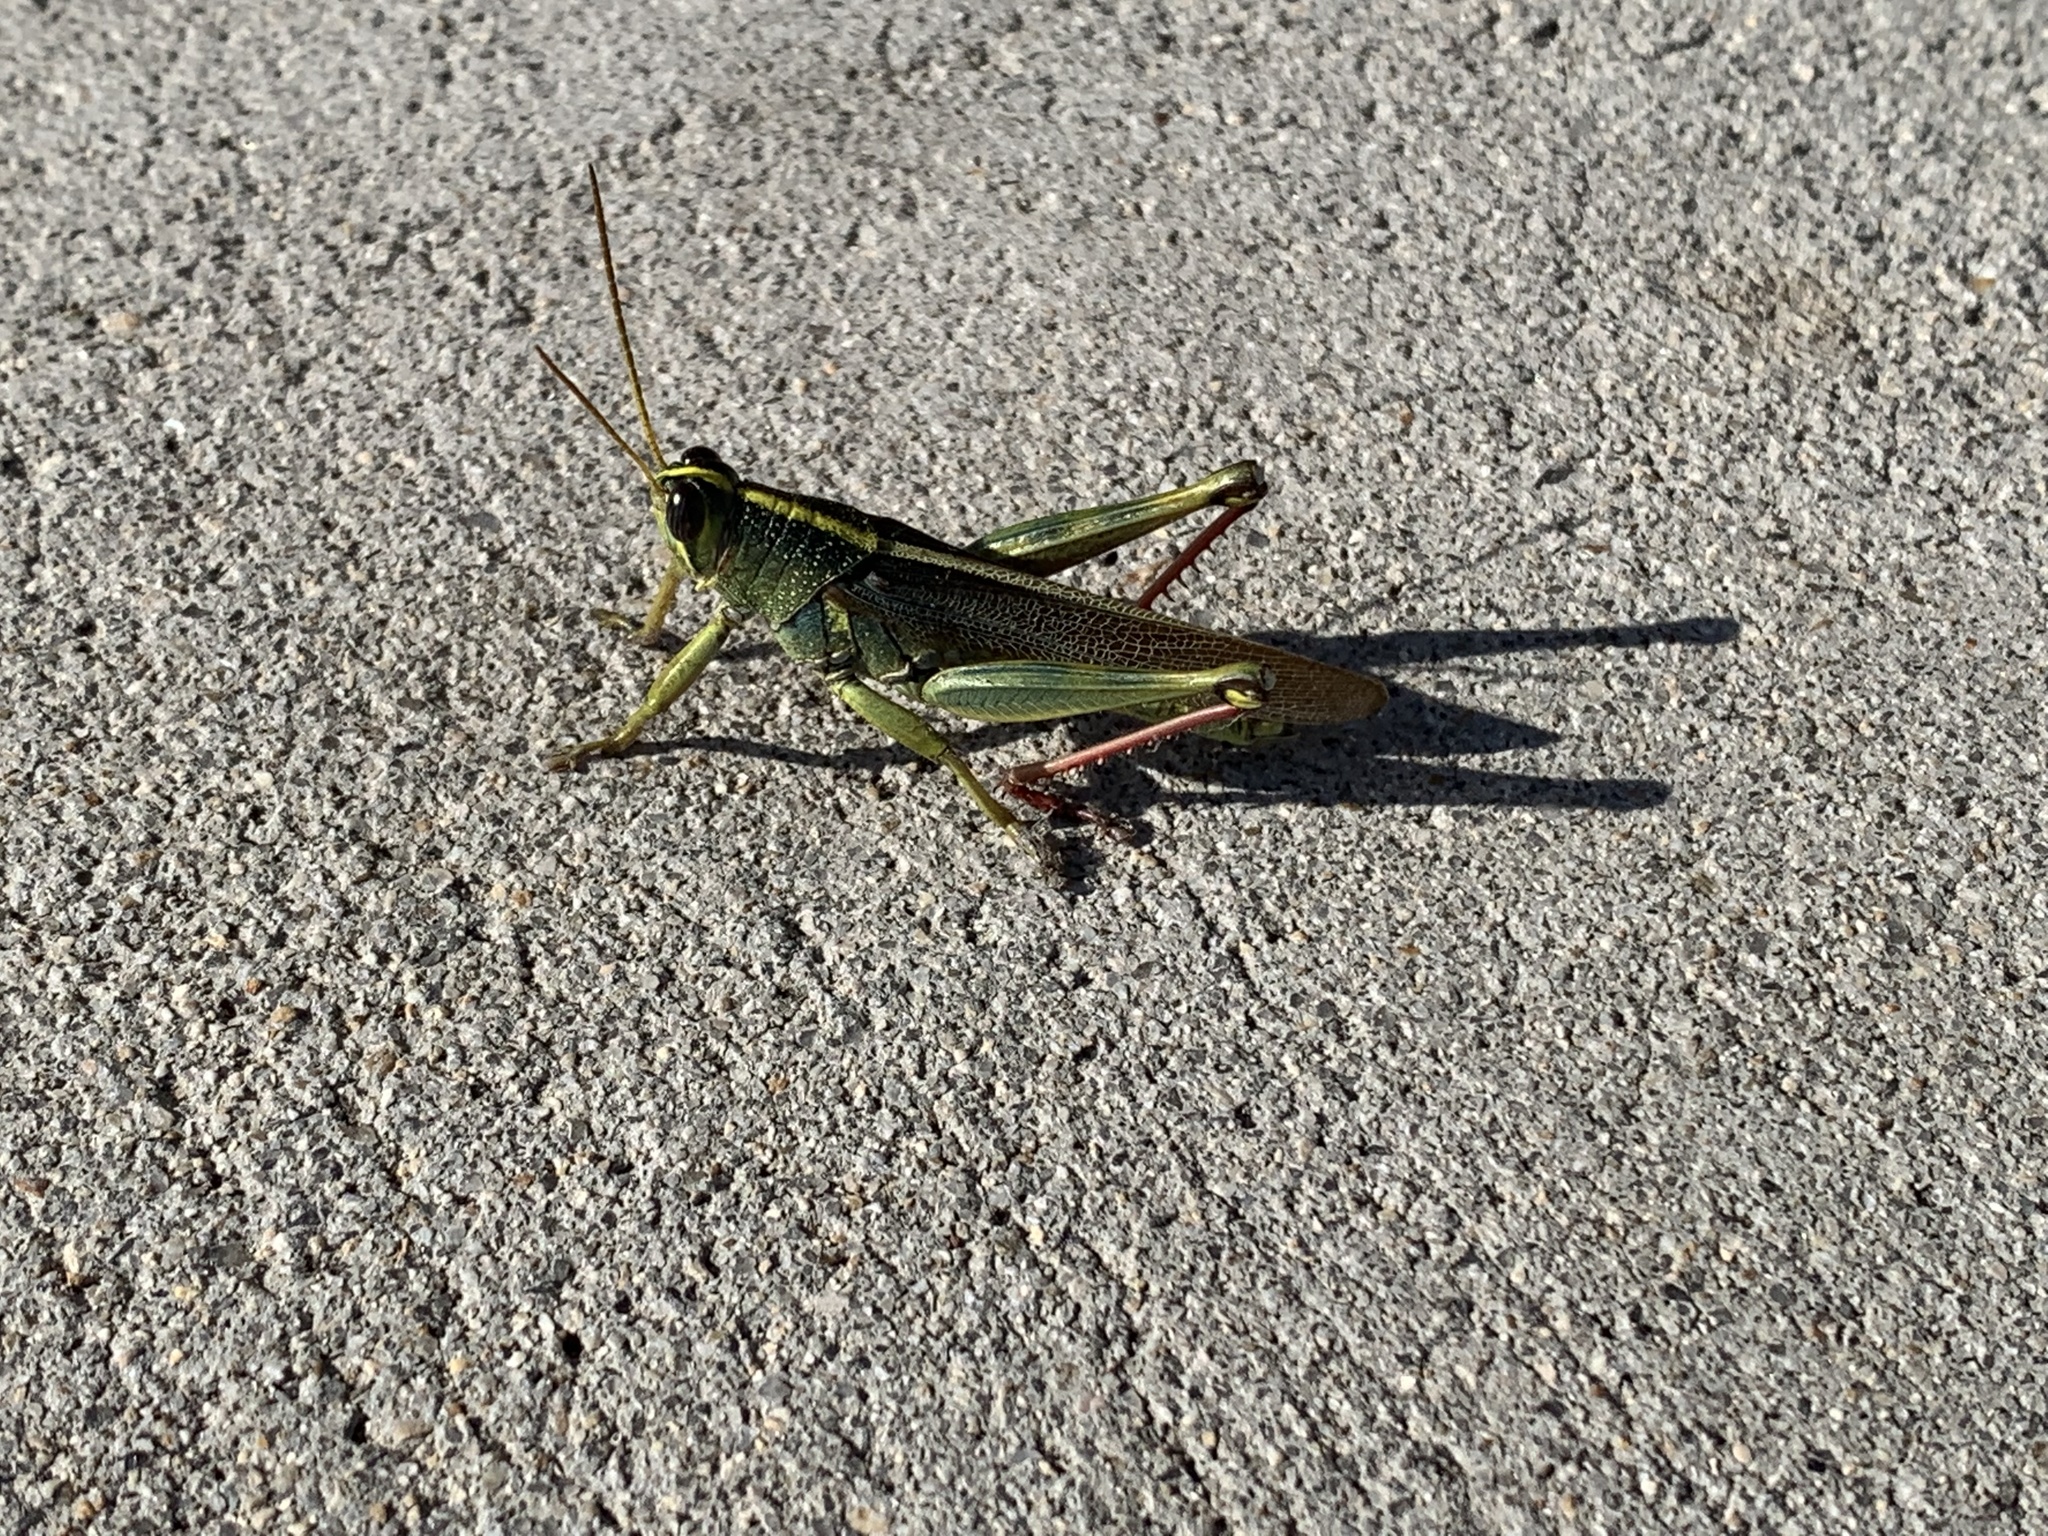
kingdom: Animalia
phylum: Arthropoda
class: Insecta
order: Orthoptera
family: Acrididae
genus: Schistocerca
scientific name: Schistocerca lineata
